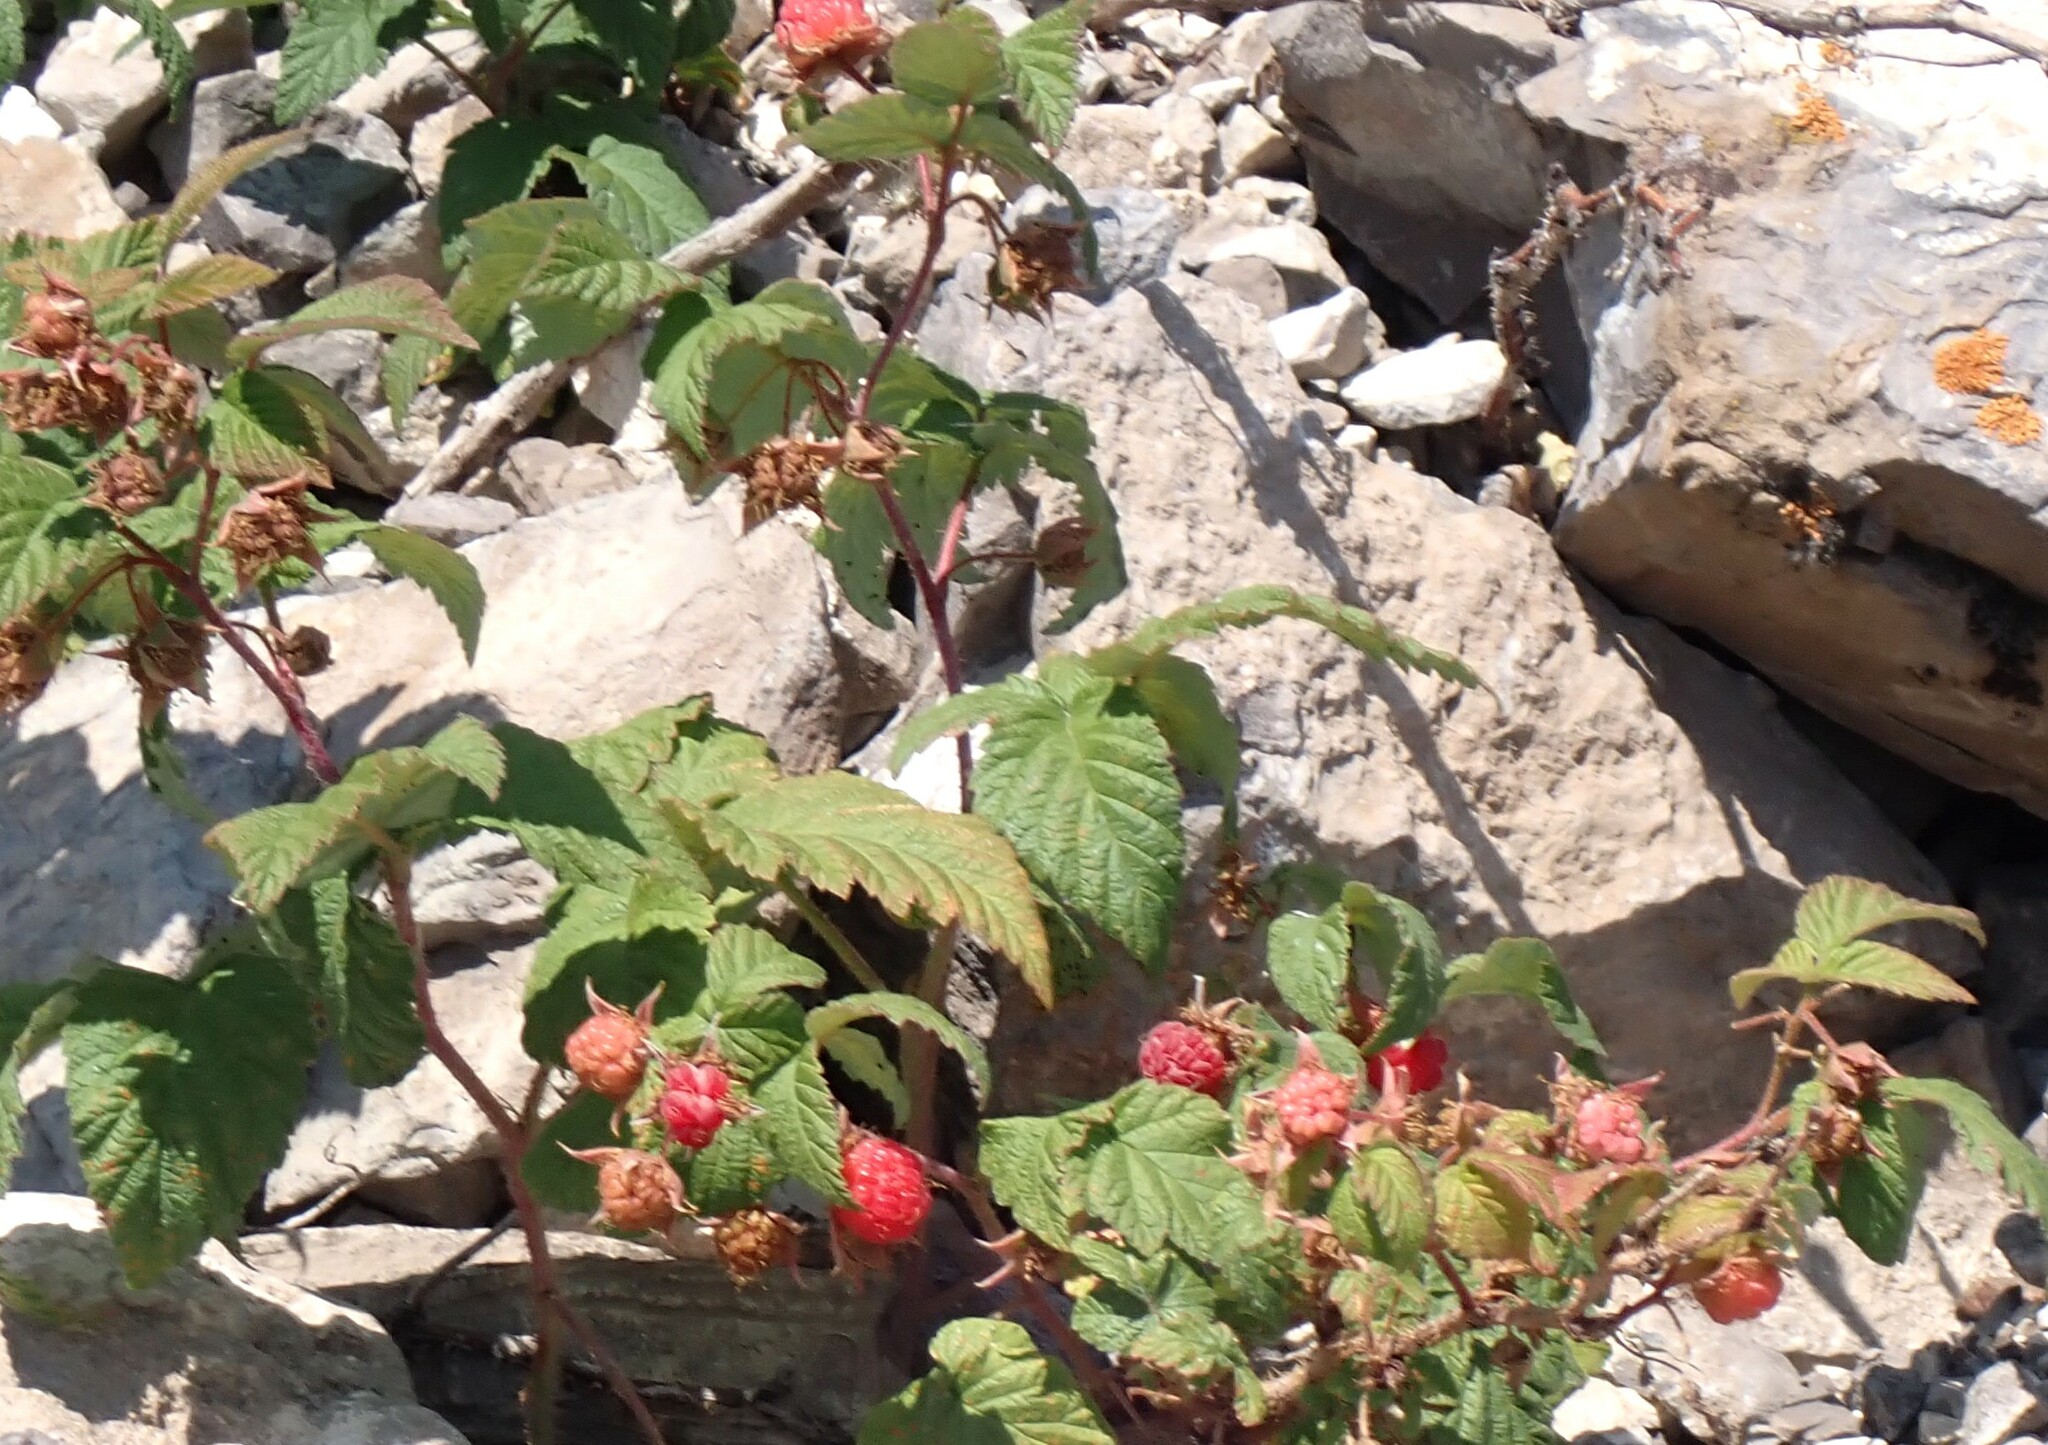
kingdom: Plantae
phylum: Tracheophyta
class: Magnoliopsida
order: Rosales
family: Rosaceae
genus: Rubus
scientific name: Rubus idaeus
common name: Raspberry
